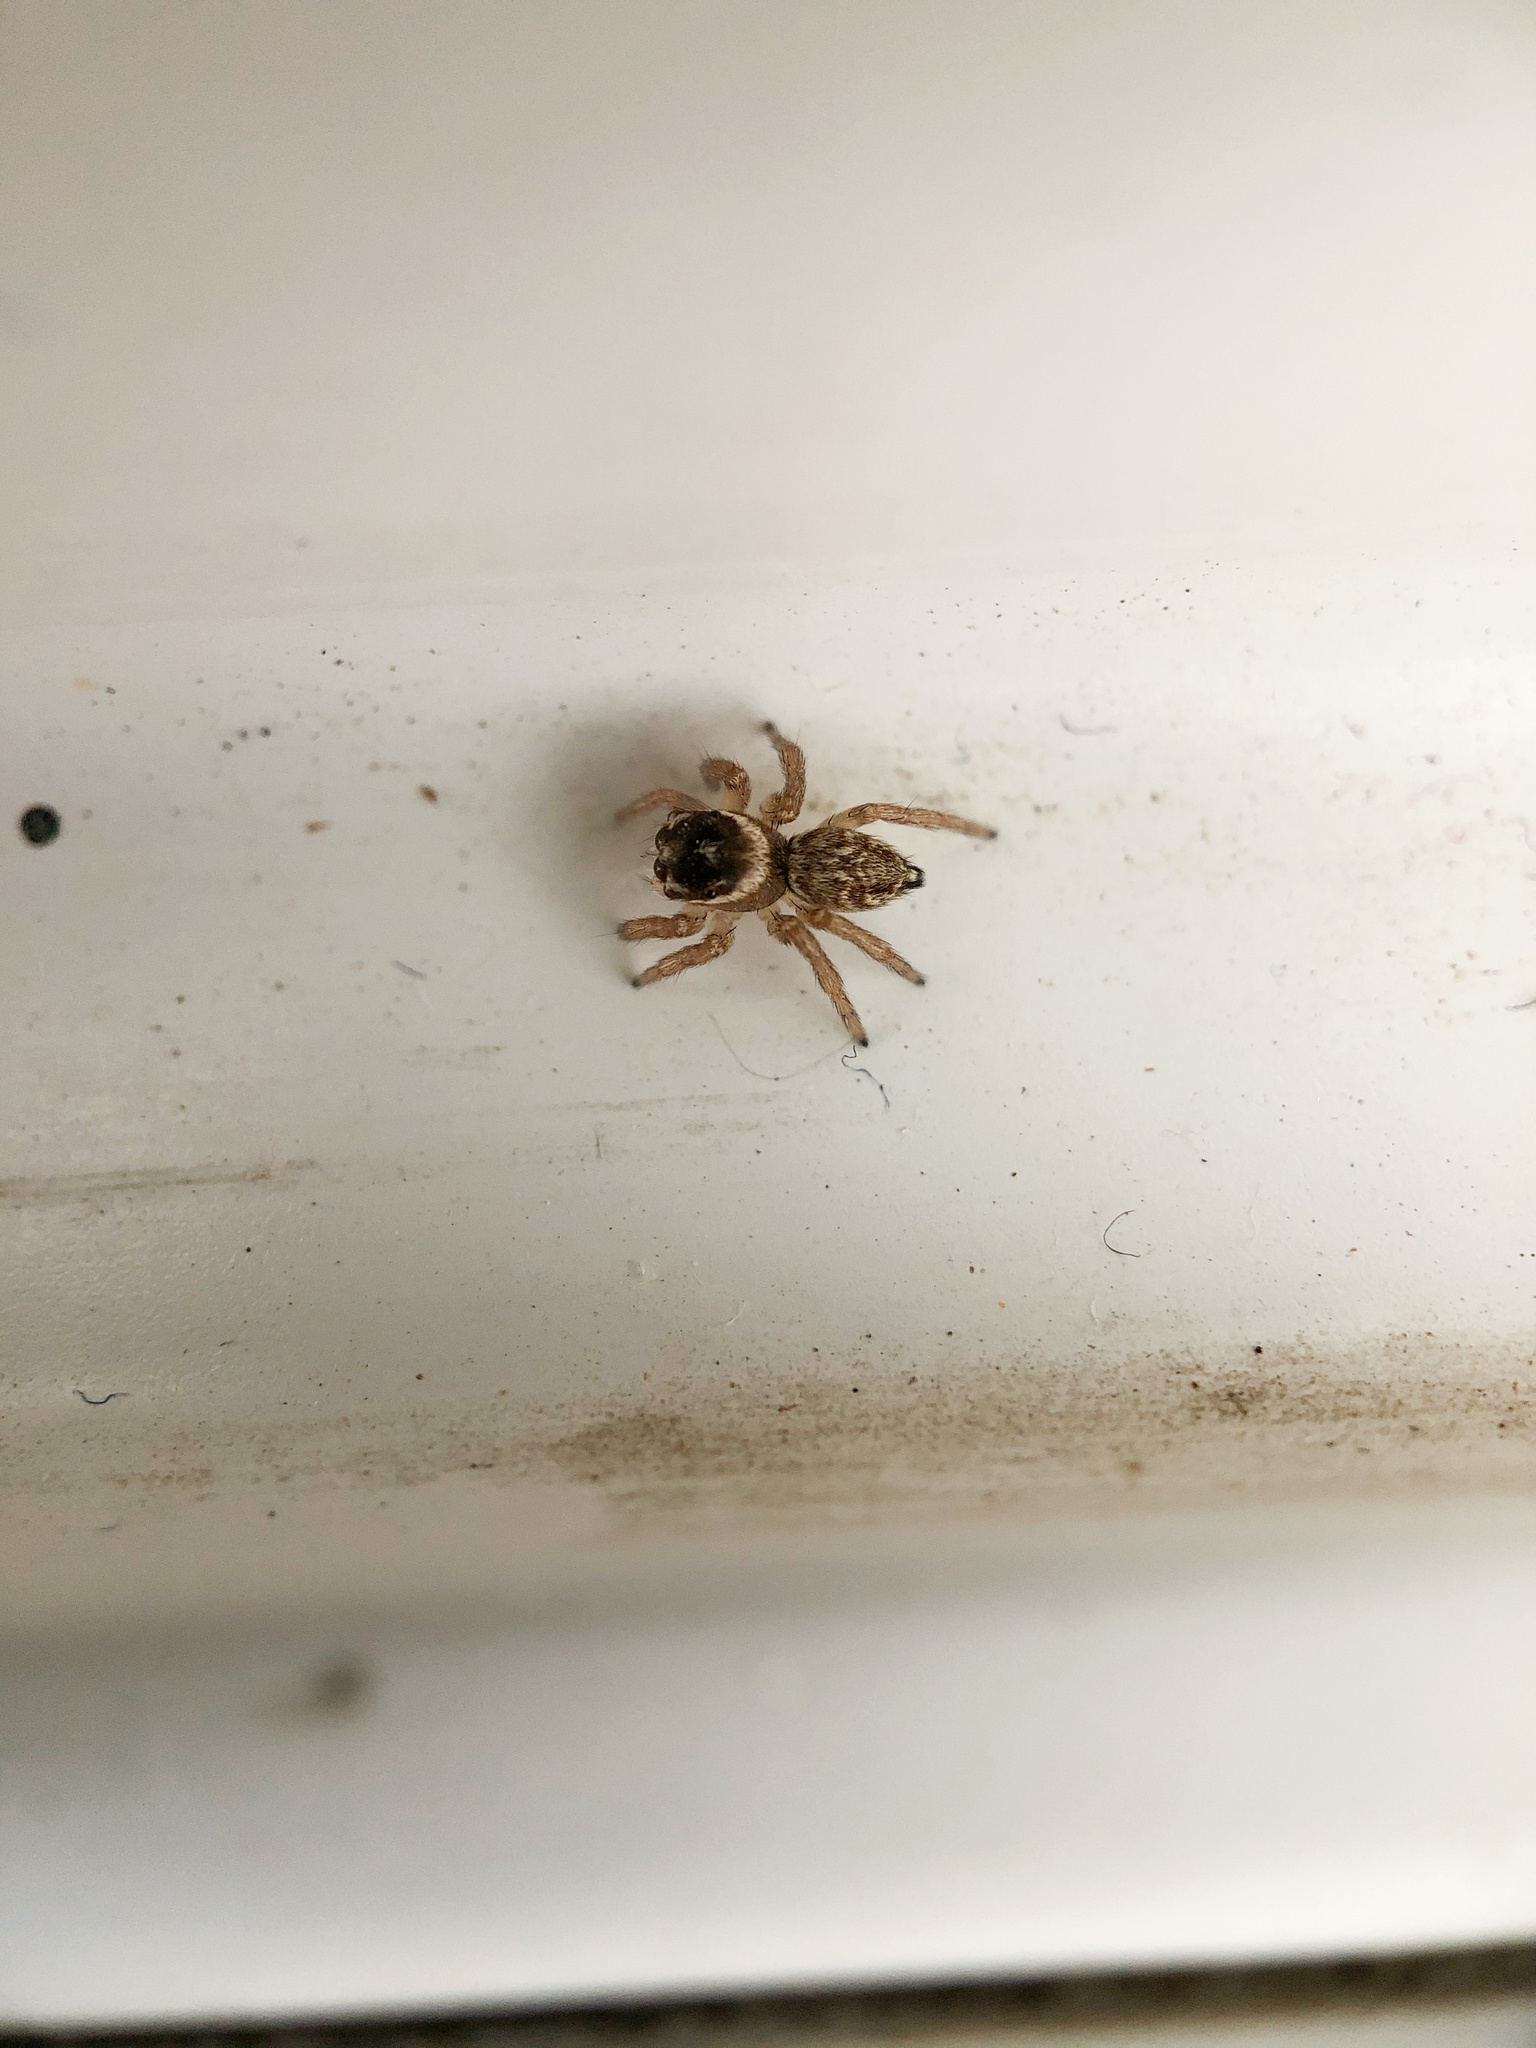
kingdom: Animalia
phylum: Arthropoda
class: Arachnida
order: Araneae
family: Salticidae
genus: Maratus
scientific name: Maratus griseus
